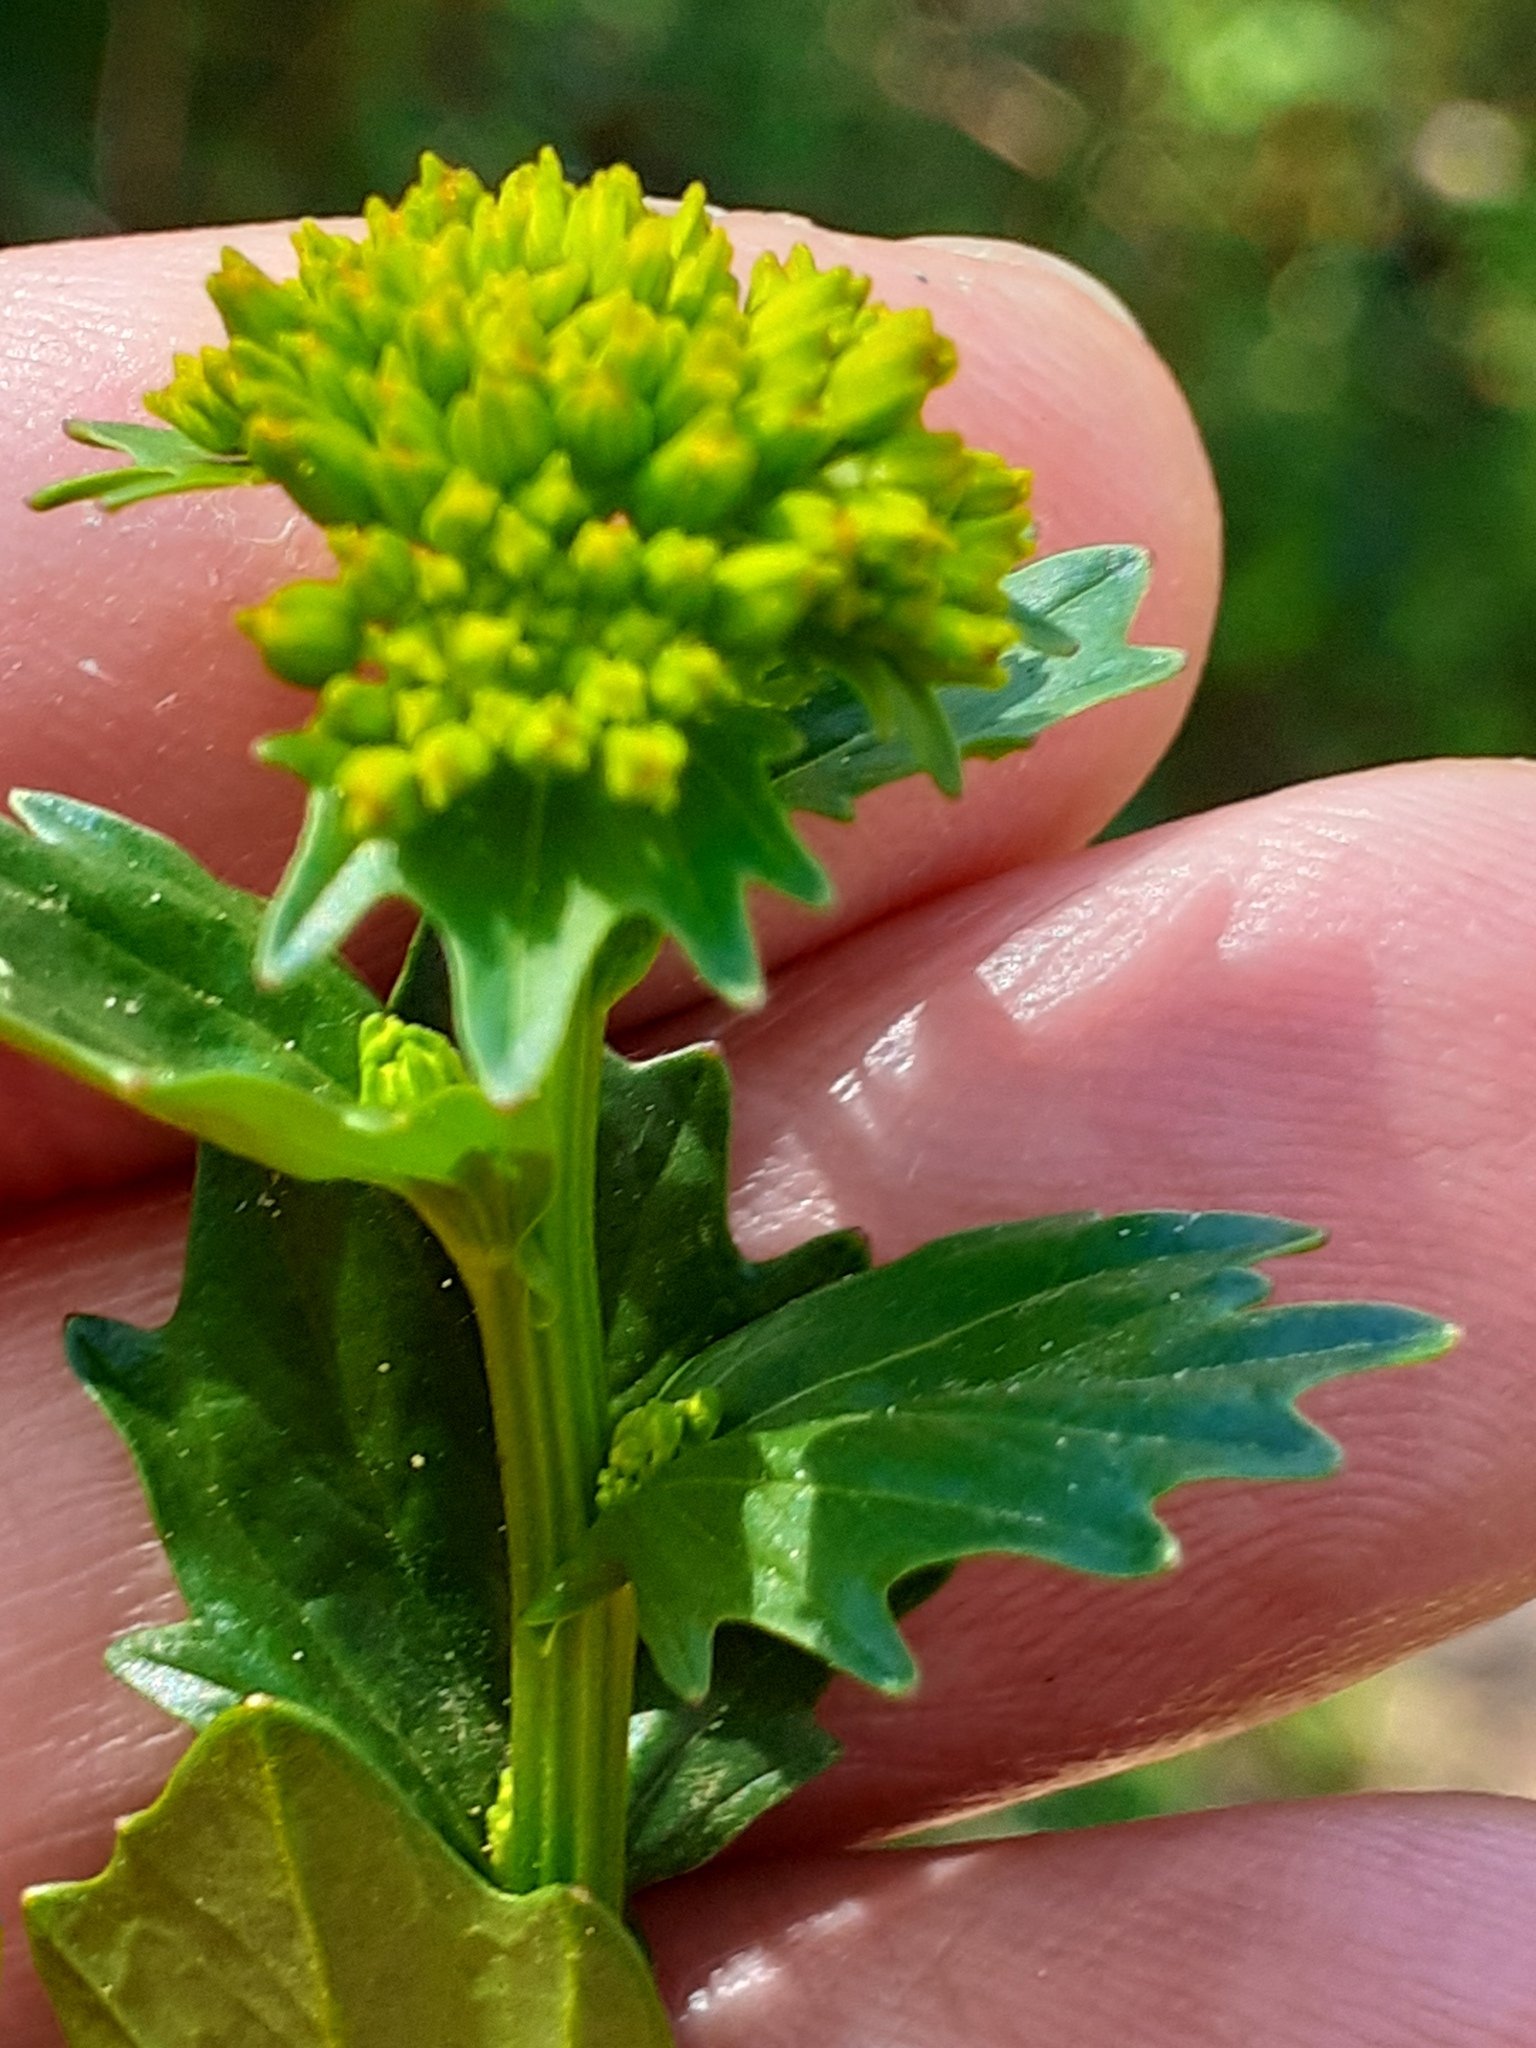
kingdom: Plantae
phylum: Tracheophyta
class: Magnoliopsida
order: Brassicales
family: Brassicaceae
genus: Barbarea
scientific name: Barbarea vulgaris
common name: Cressy-greens
